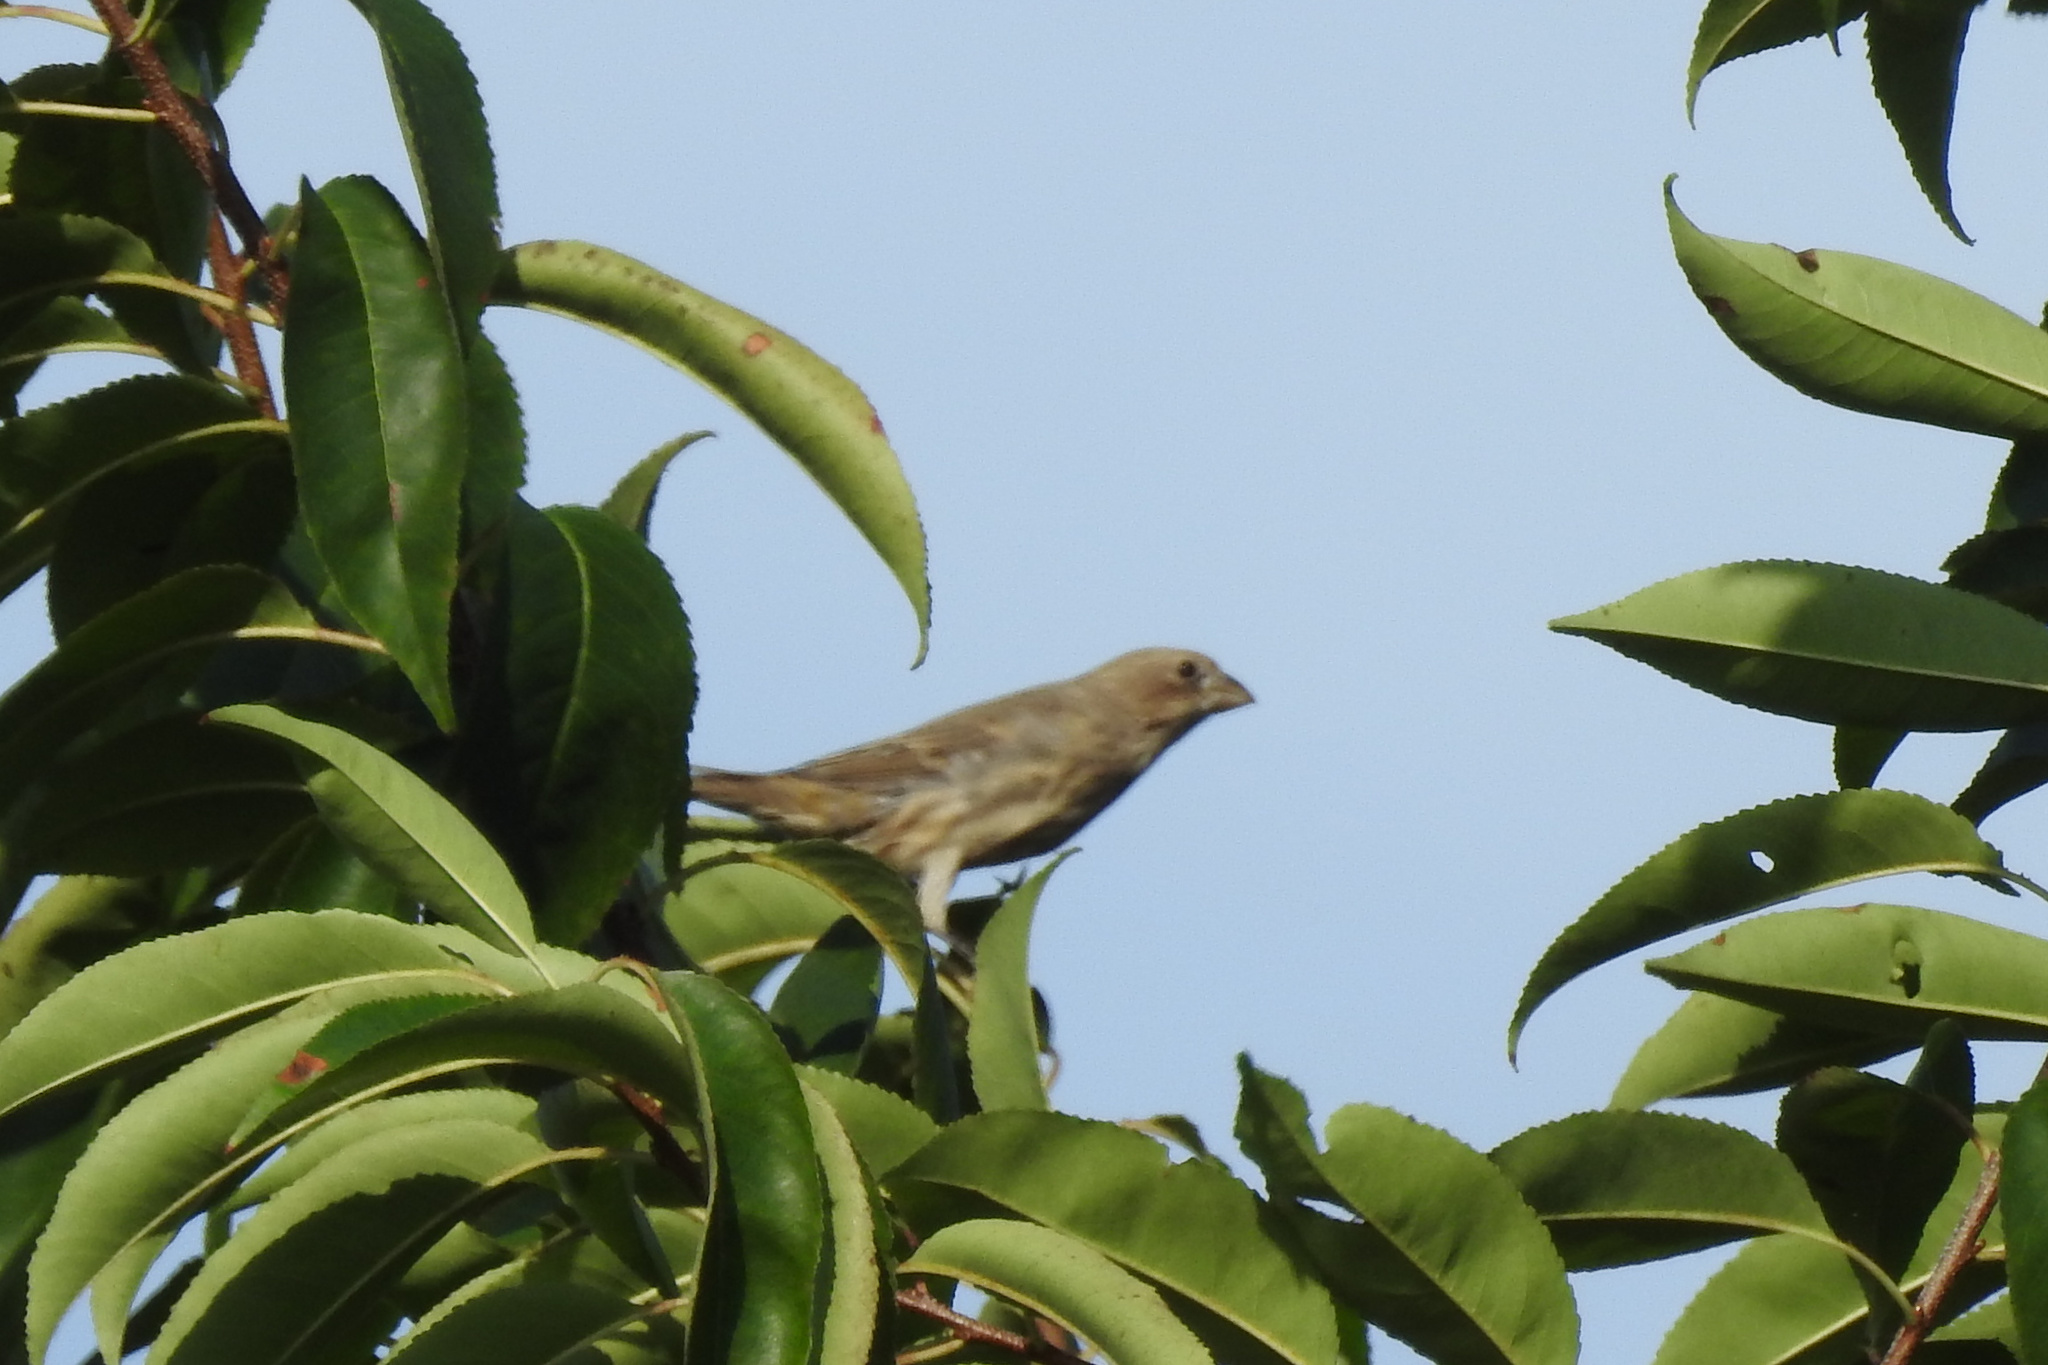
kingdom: Animalia
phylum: Chordata
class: Aves
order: Passeriformes
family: Fringillidae
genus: Haemorhous
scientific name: Haemorhous mexicanus
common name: House finch
